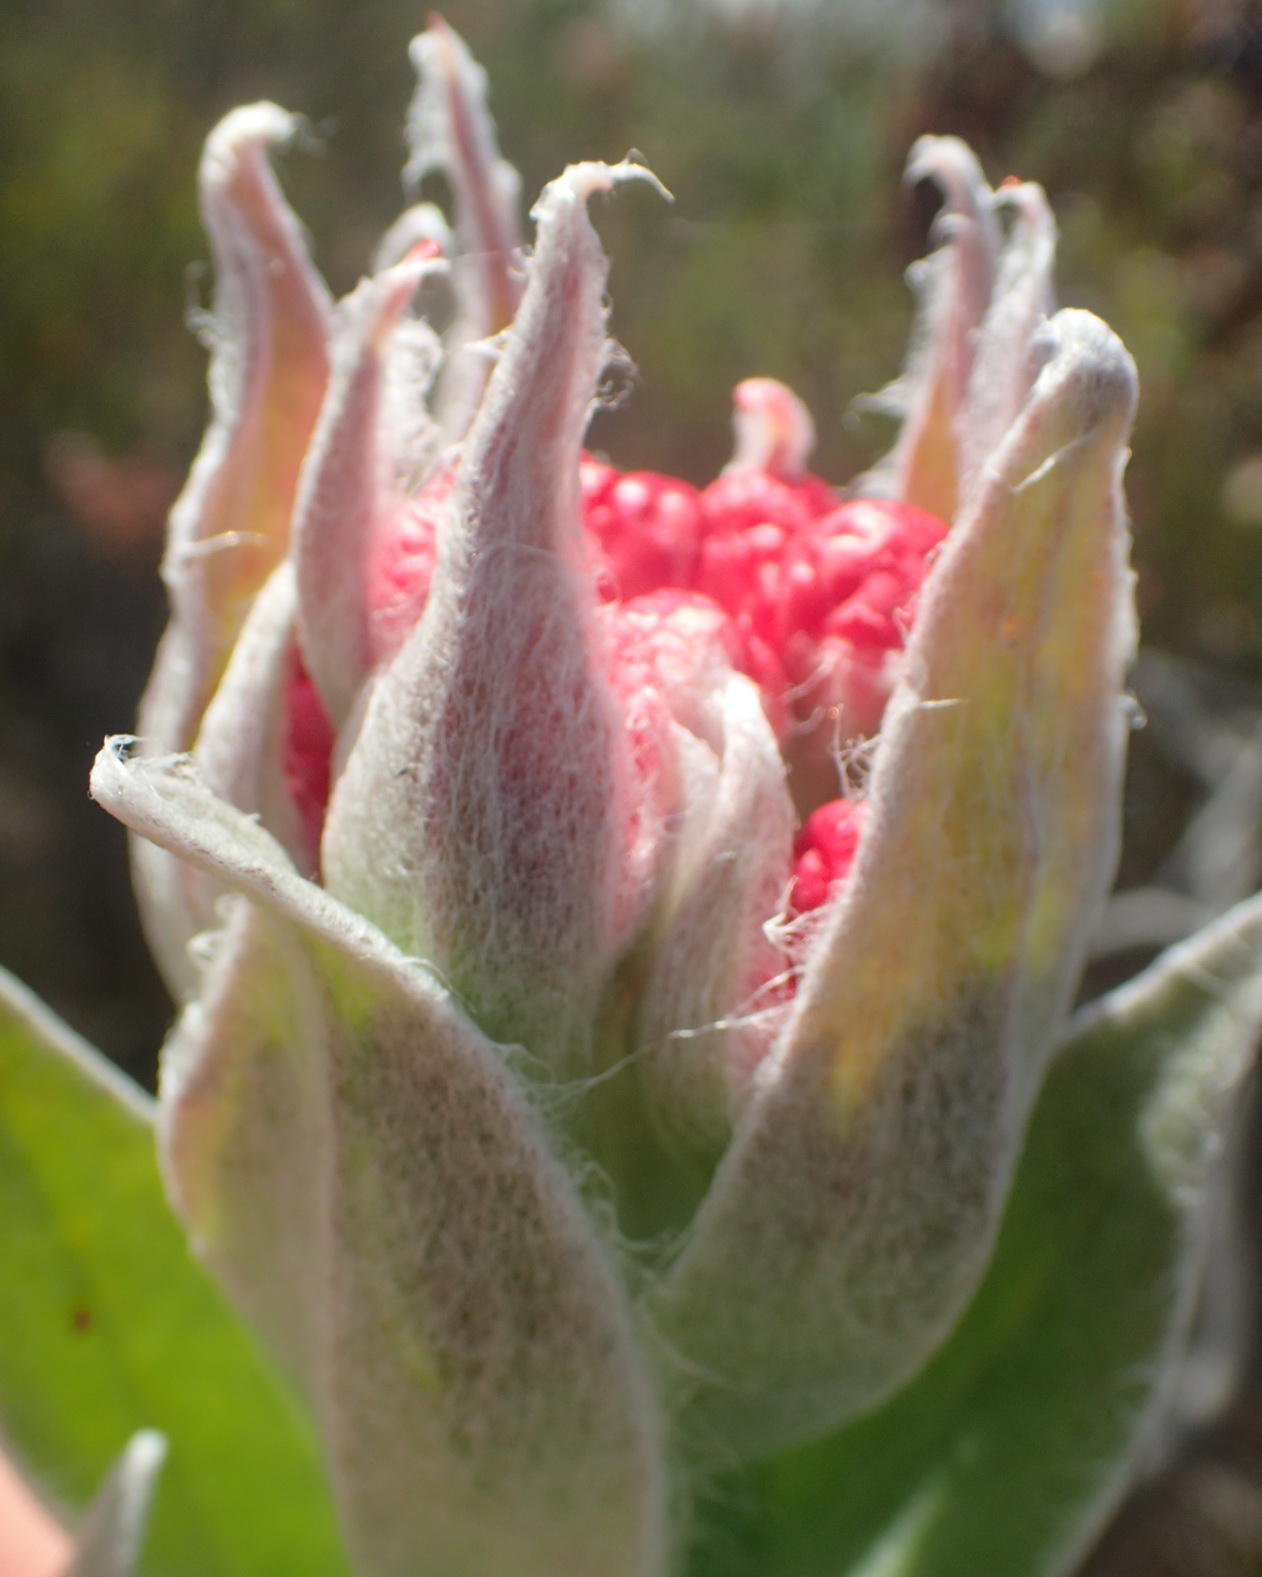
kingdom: Plantae
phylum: Tracheophyta
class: Magnoliopsida
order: Asterales
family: Asteraceae
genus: Syncarpha
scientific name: Syncarpha eximia
